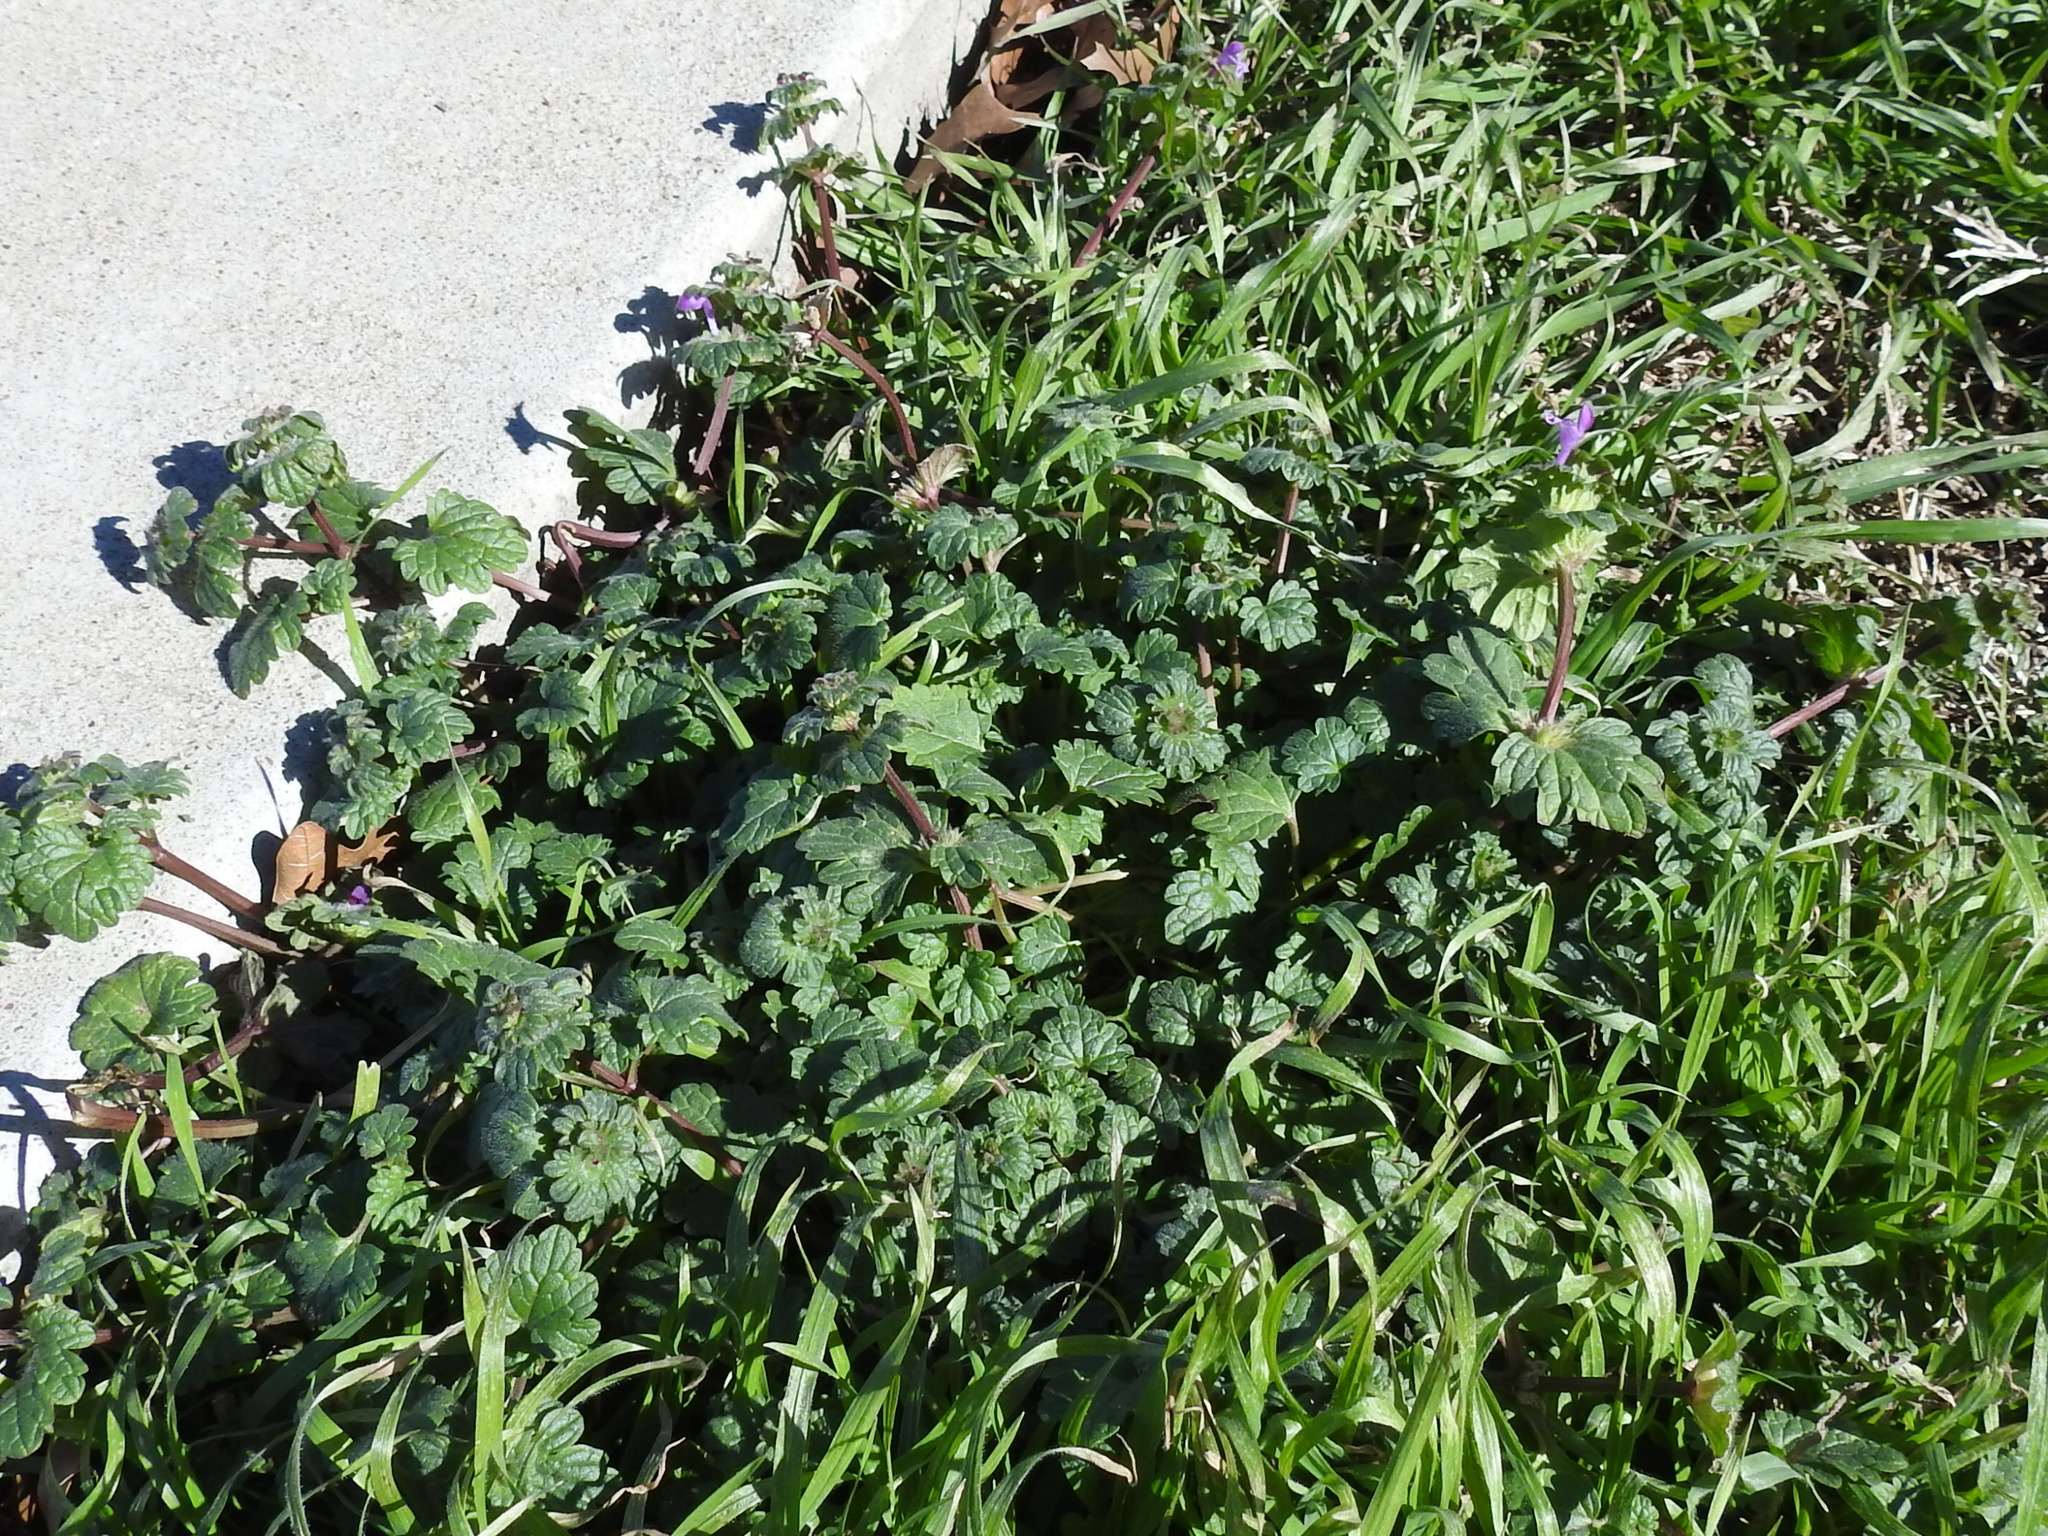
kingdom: Plantae
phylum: Tracheophyta
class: Magnoliopsida
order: Lamiales
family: Lamiaceae
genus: Lamium
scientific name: Lamium amplexicaule
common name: Henbit dead-nettle
